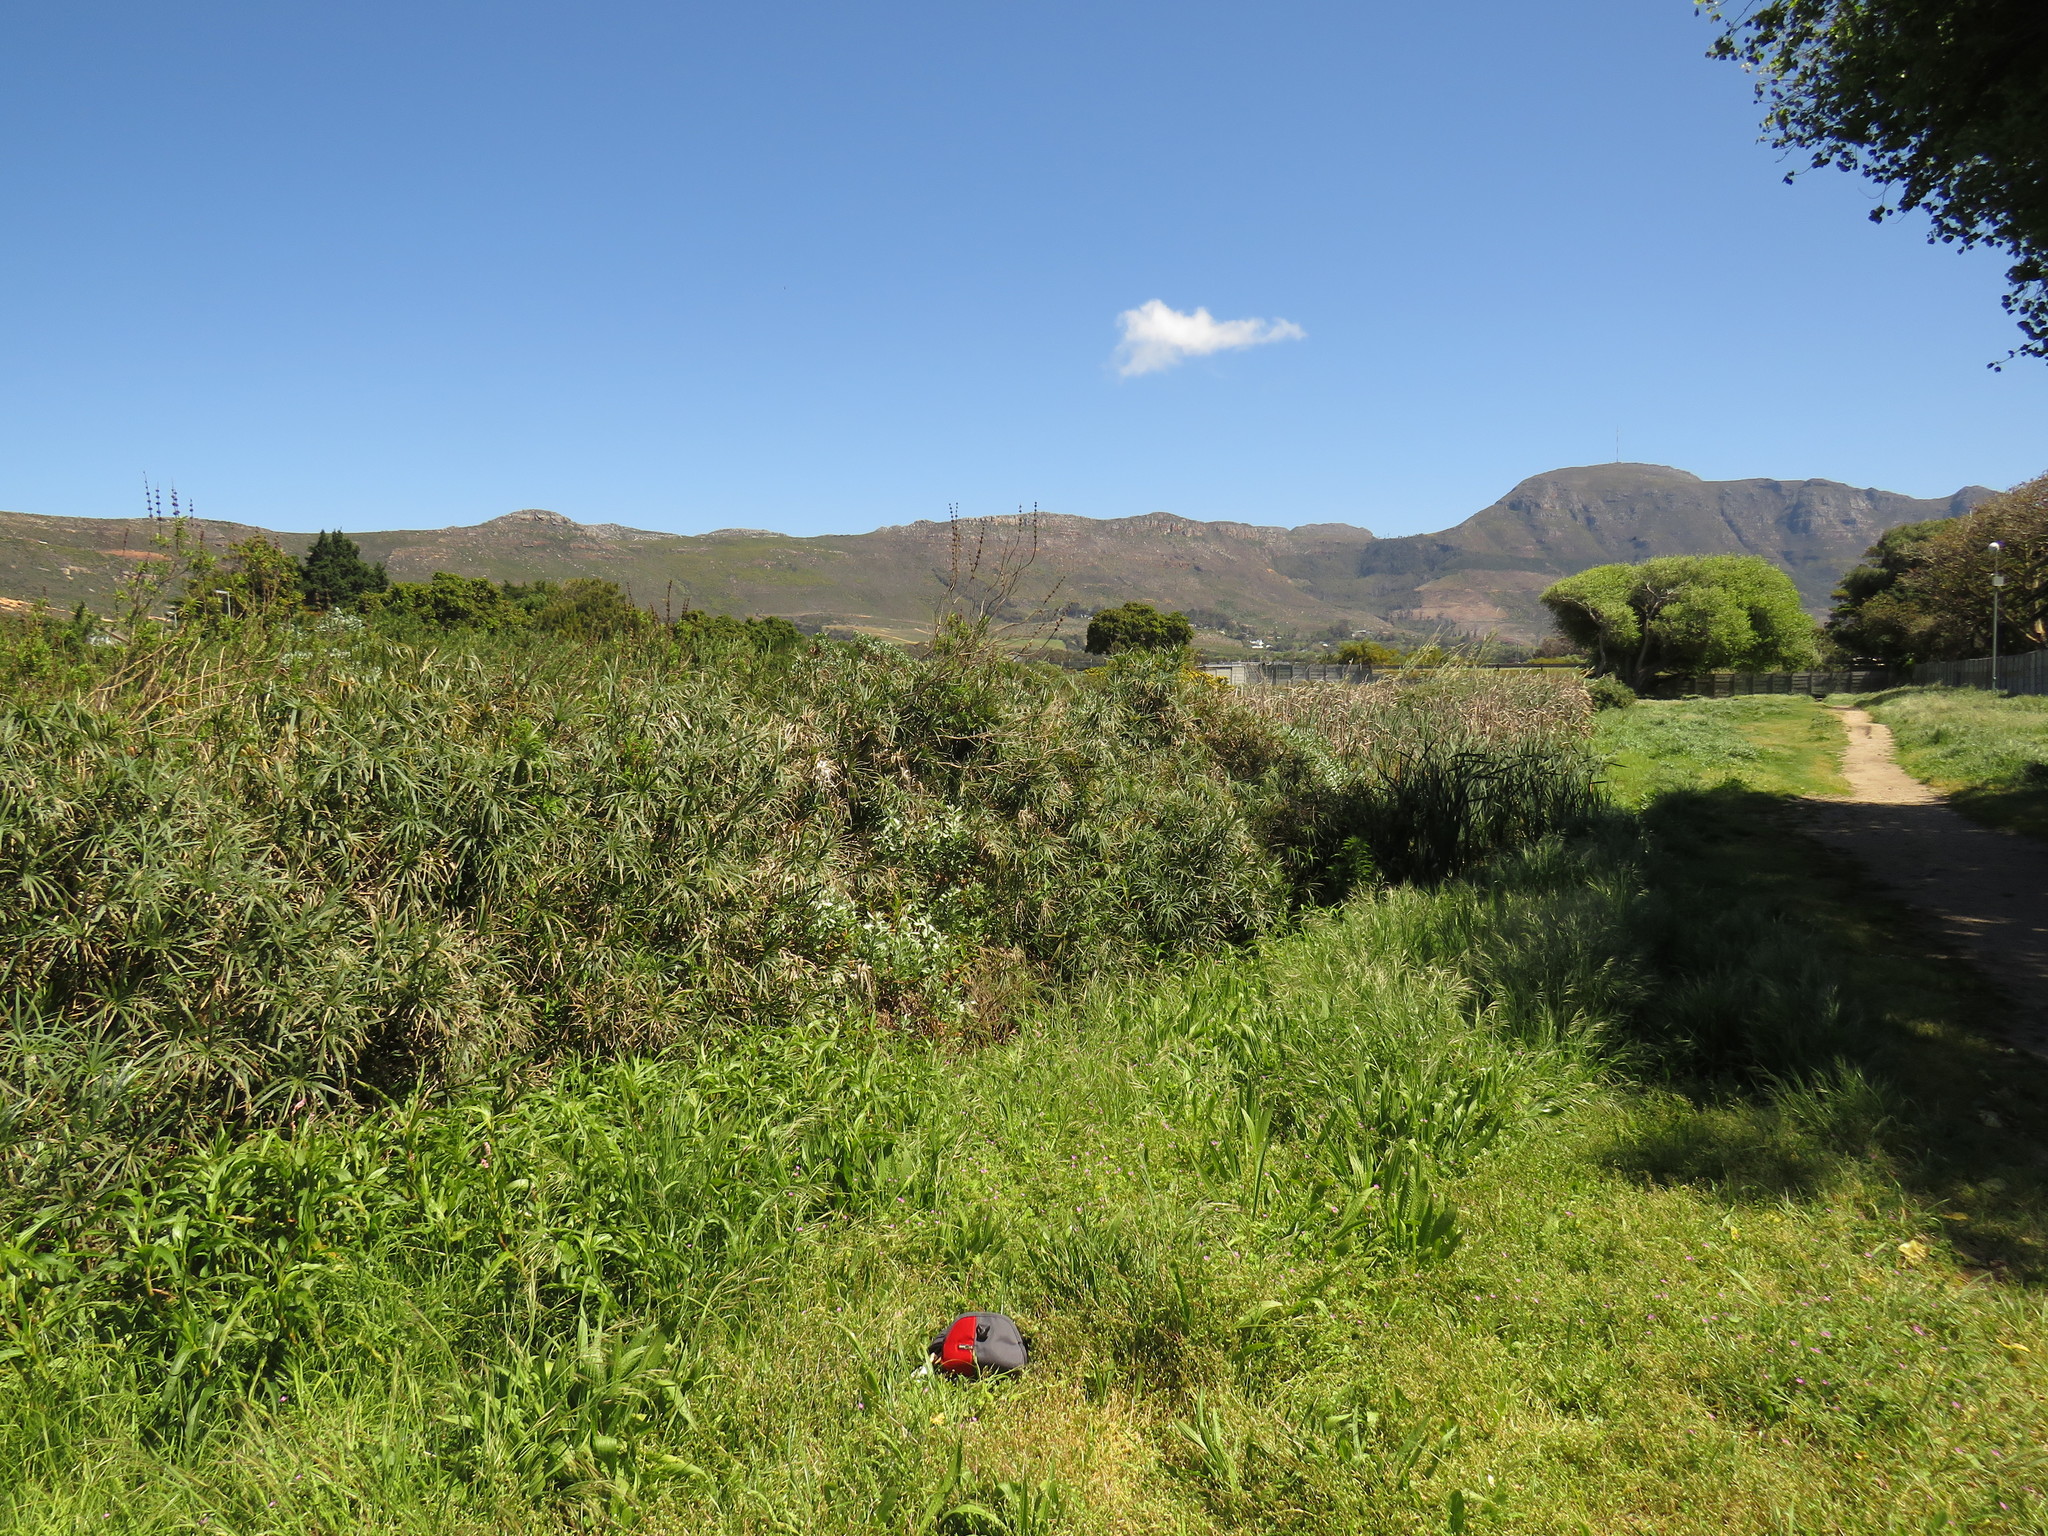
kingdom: Plantae
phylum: Tracheophyta
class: Magnoliopsida
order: Caryophyllales
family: Polygonaceae
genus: Persicaria
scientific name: Persicaria madagascariensis
